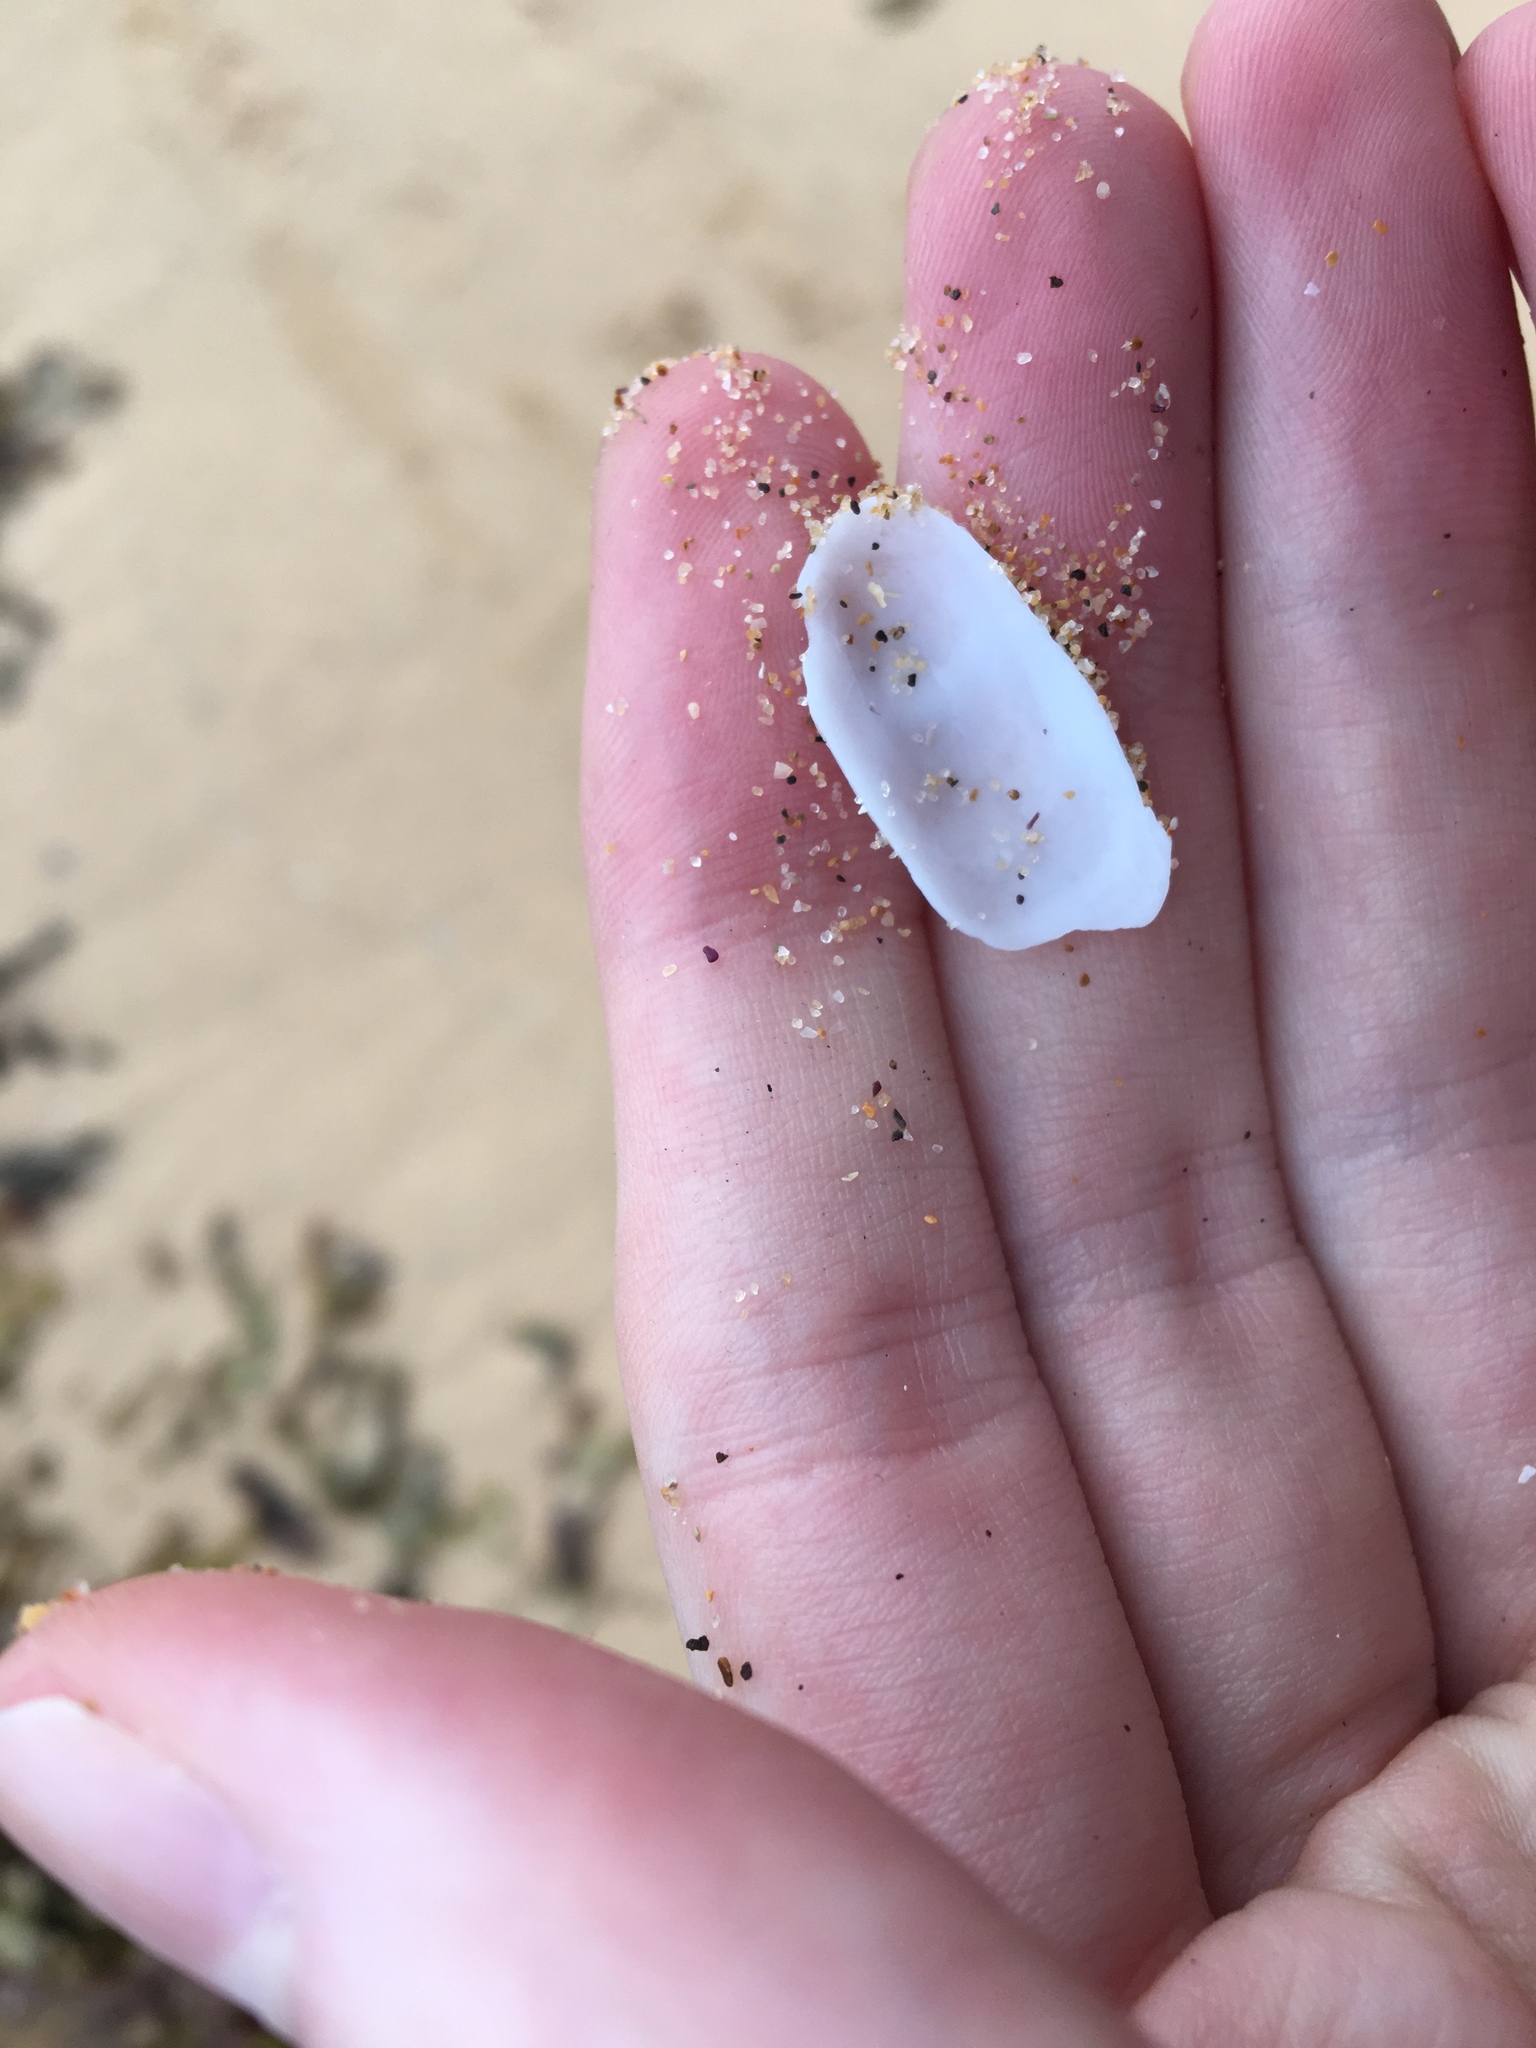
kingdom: Animalia
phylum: Mollusca
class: Gastropoda
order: Lepetellida
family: Fissurellidae
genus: Scutus
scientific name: Scutus antipodes
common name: Duckbill shell
